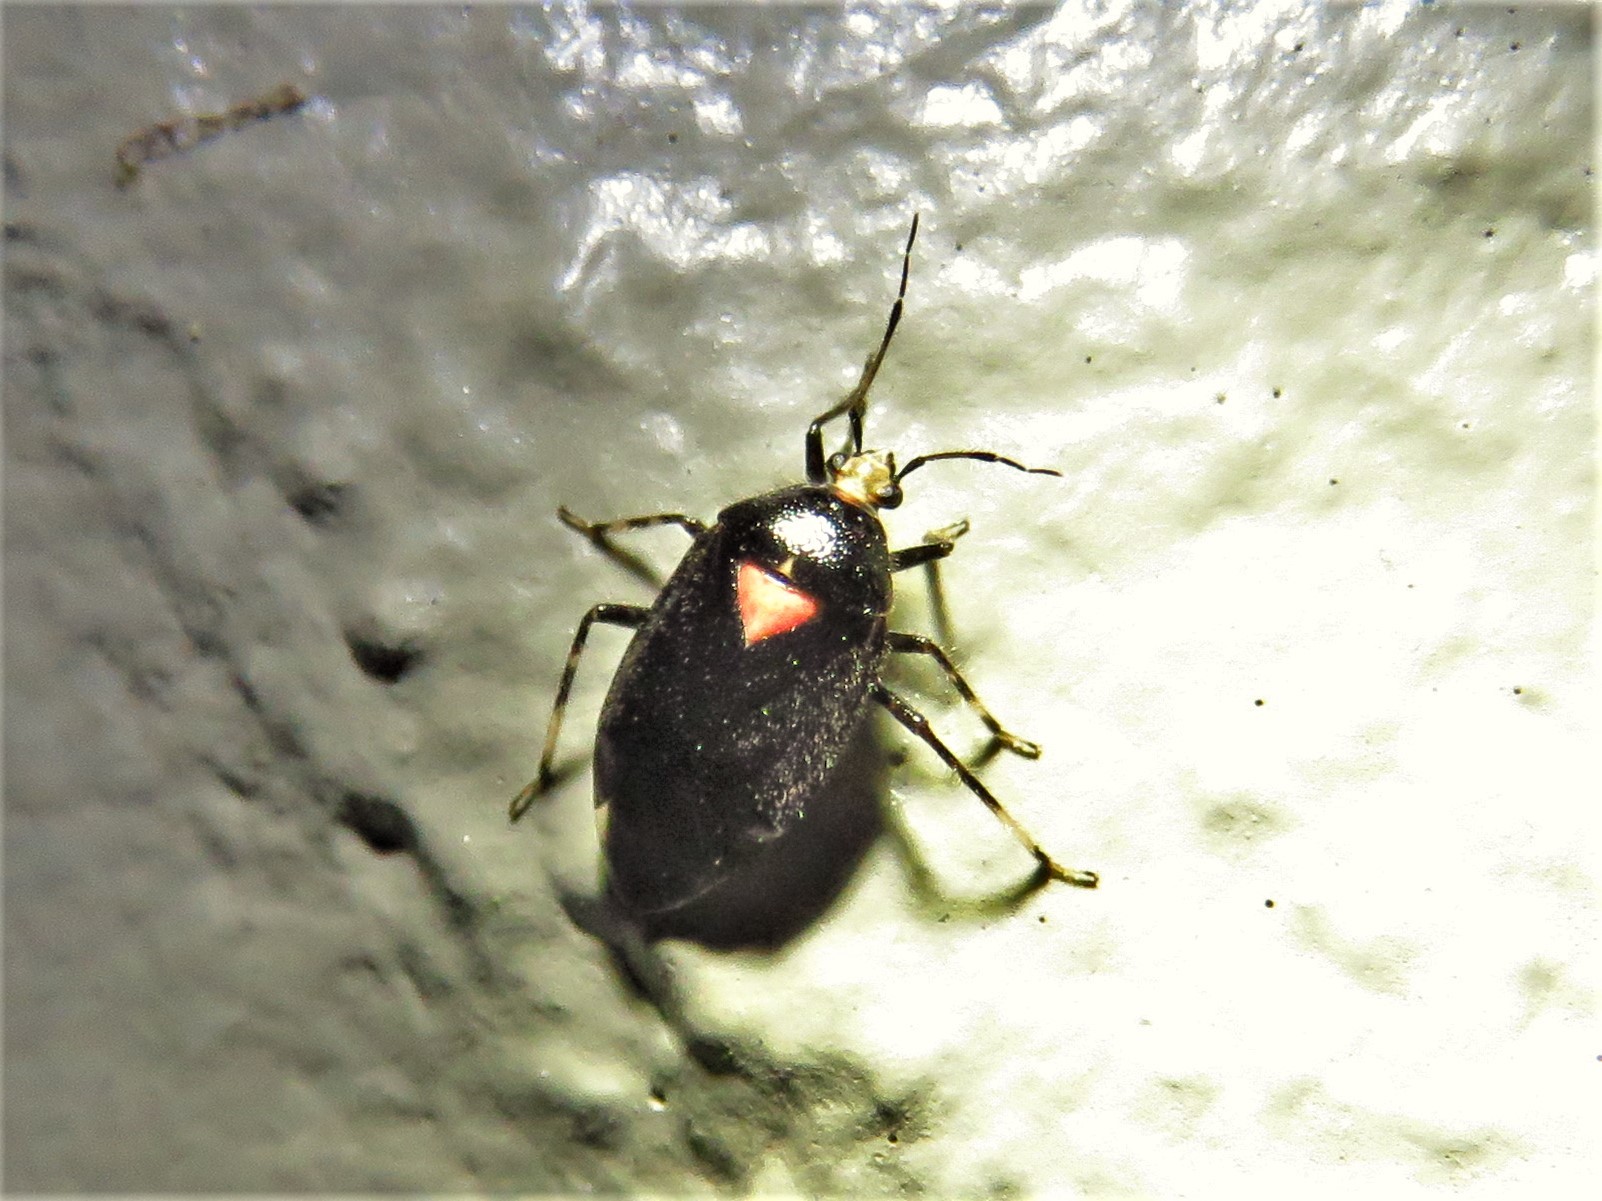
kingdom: Animalia
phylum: Arthropoda
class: Insecta
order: Hemiptera
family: Miridae
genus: Deraeocoris
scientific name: Deraeocoris sayi
